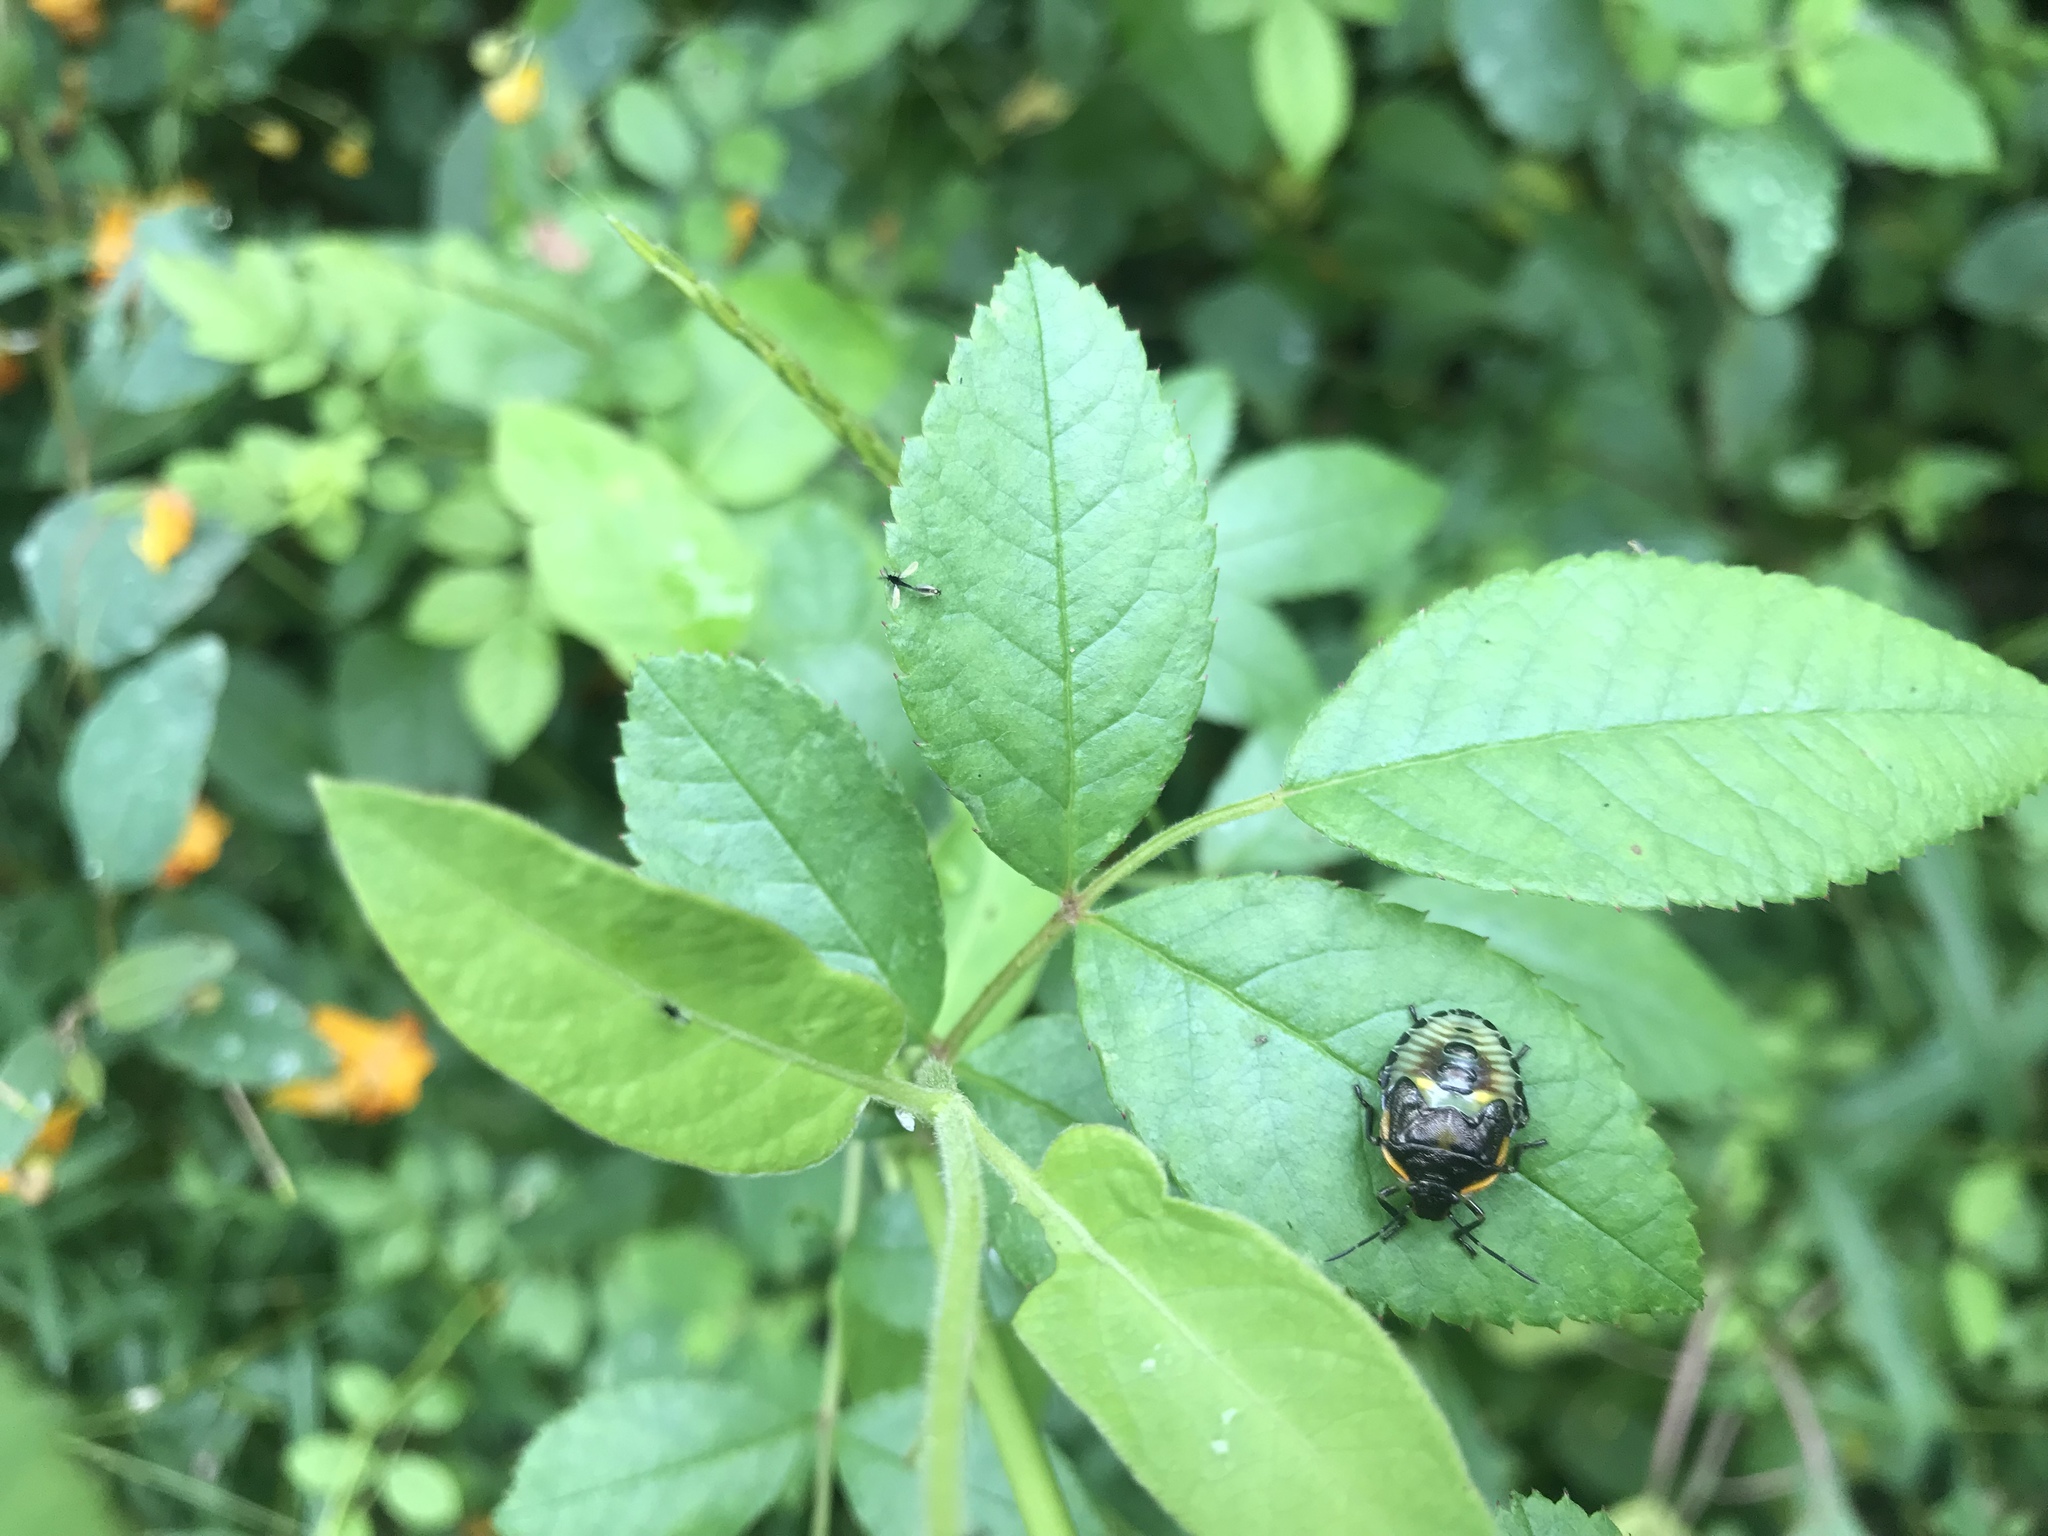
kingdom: Animalia
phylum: Arthropoda
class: Insecta
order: Hemiptera
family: Pentatomidae
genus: Chinavia
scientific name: Chinavia hilaris
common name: Green stink bug
